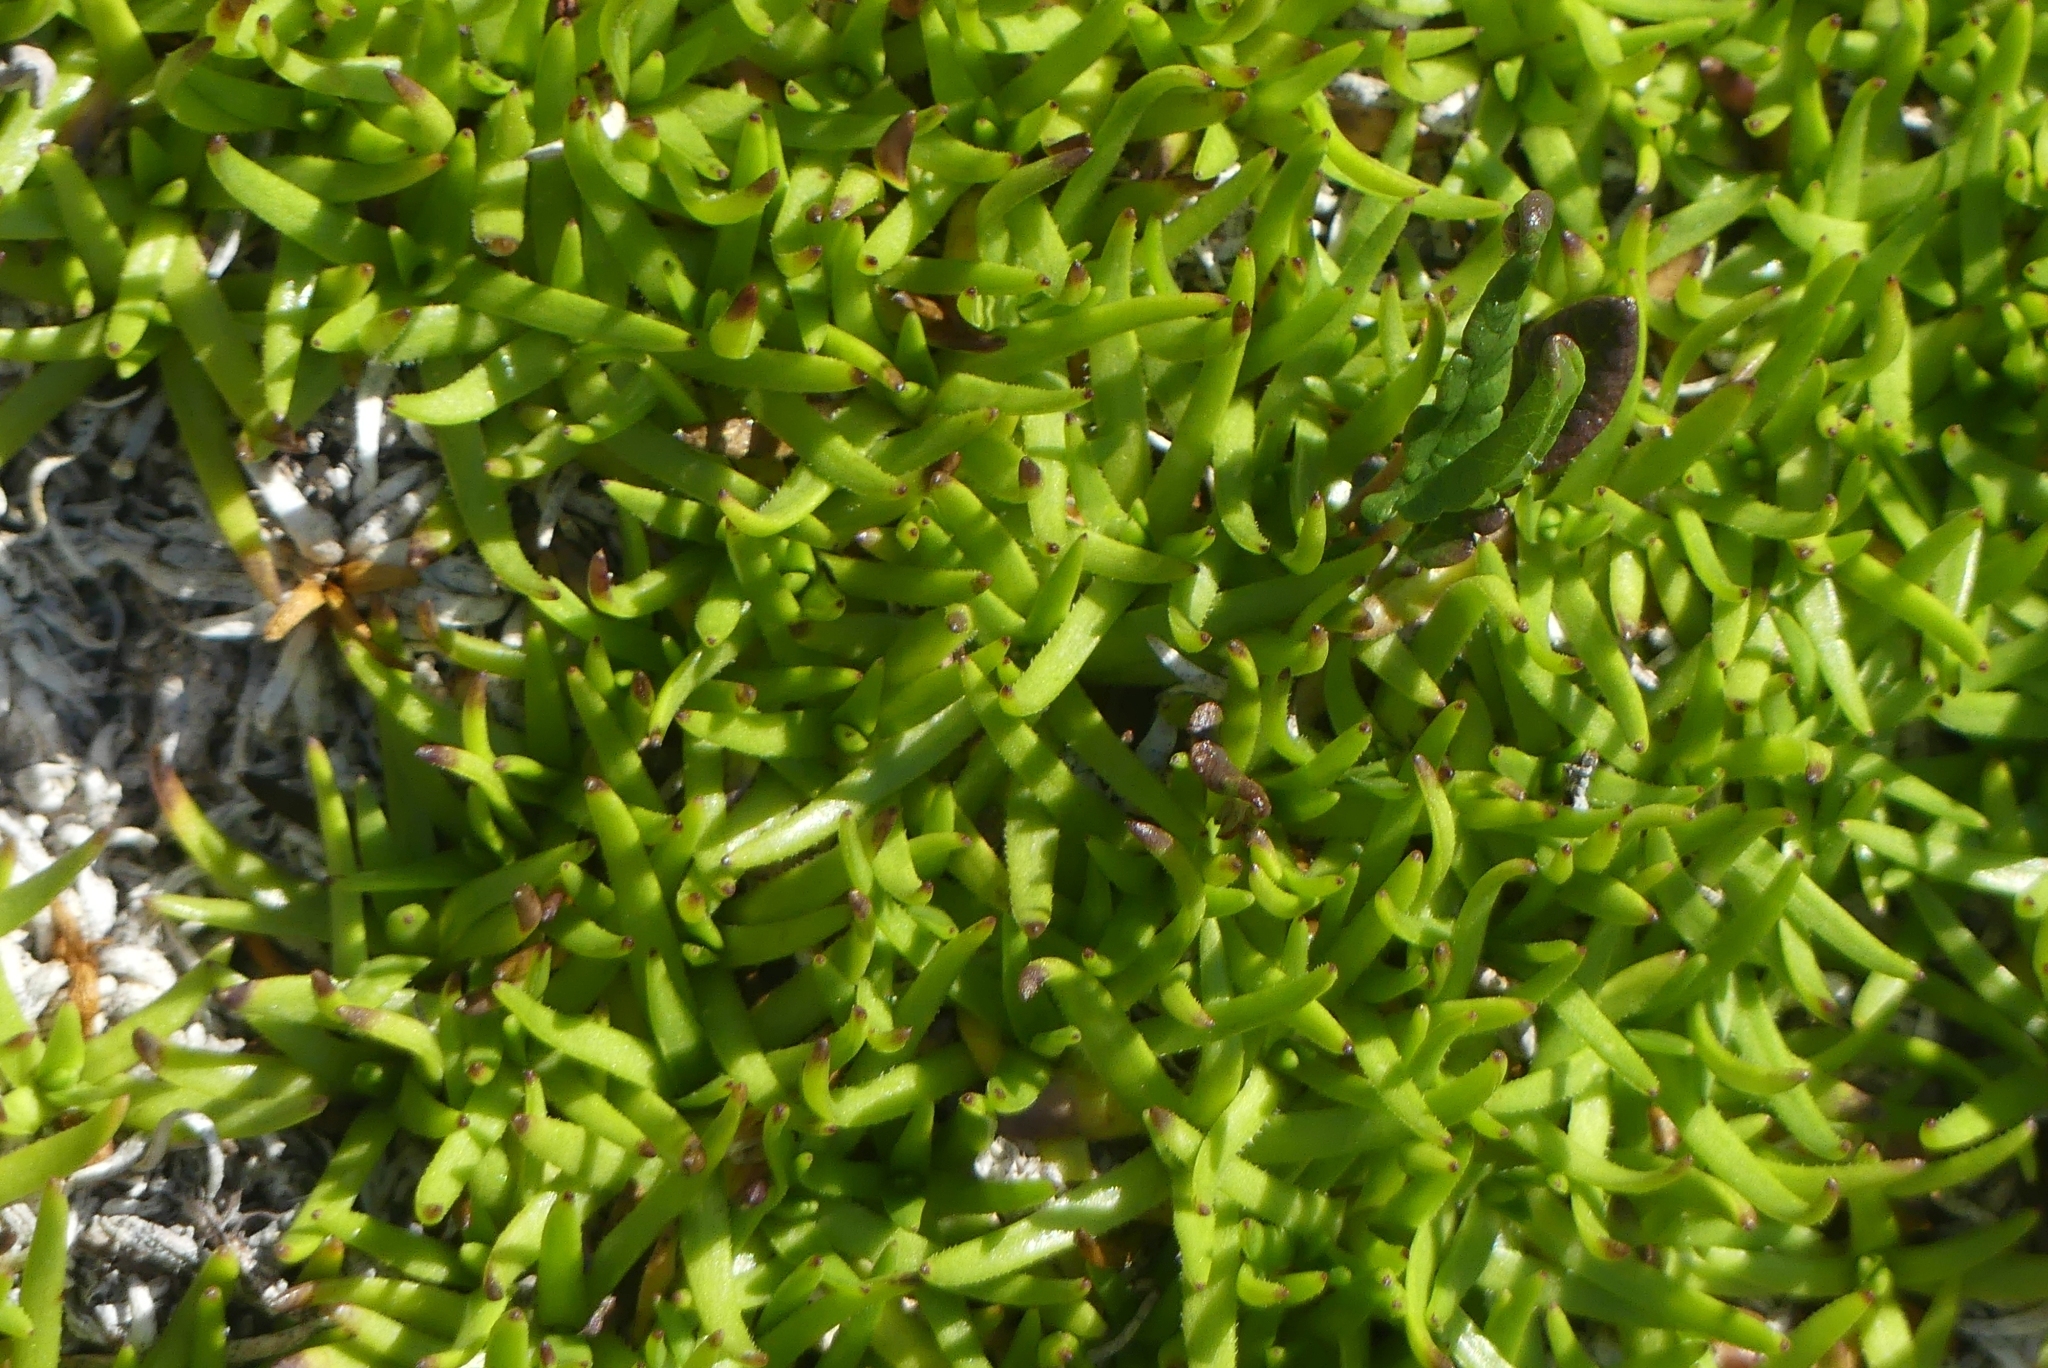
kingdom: Plantae
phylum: Tracheophyta
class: Magnoliopsida
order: Caryophyllales
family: Caryophyllaceae
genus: Silene
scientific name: Silene acaulis
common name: Moss campion
